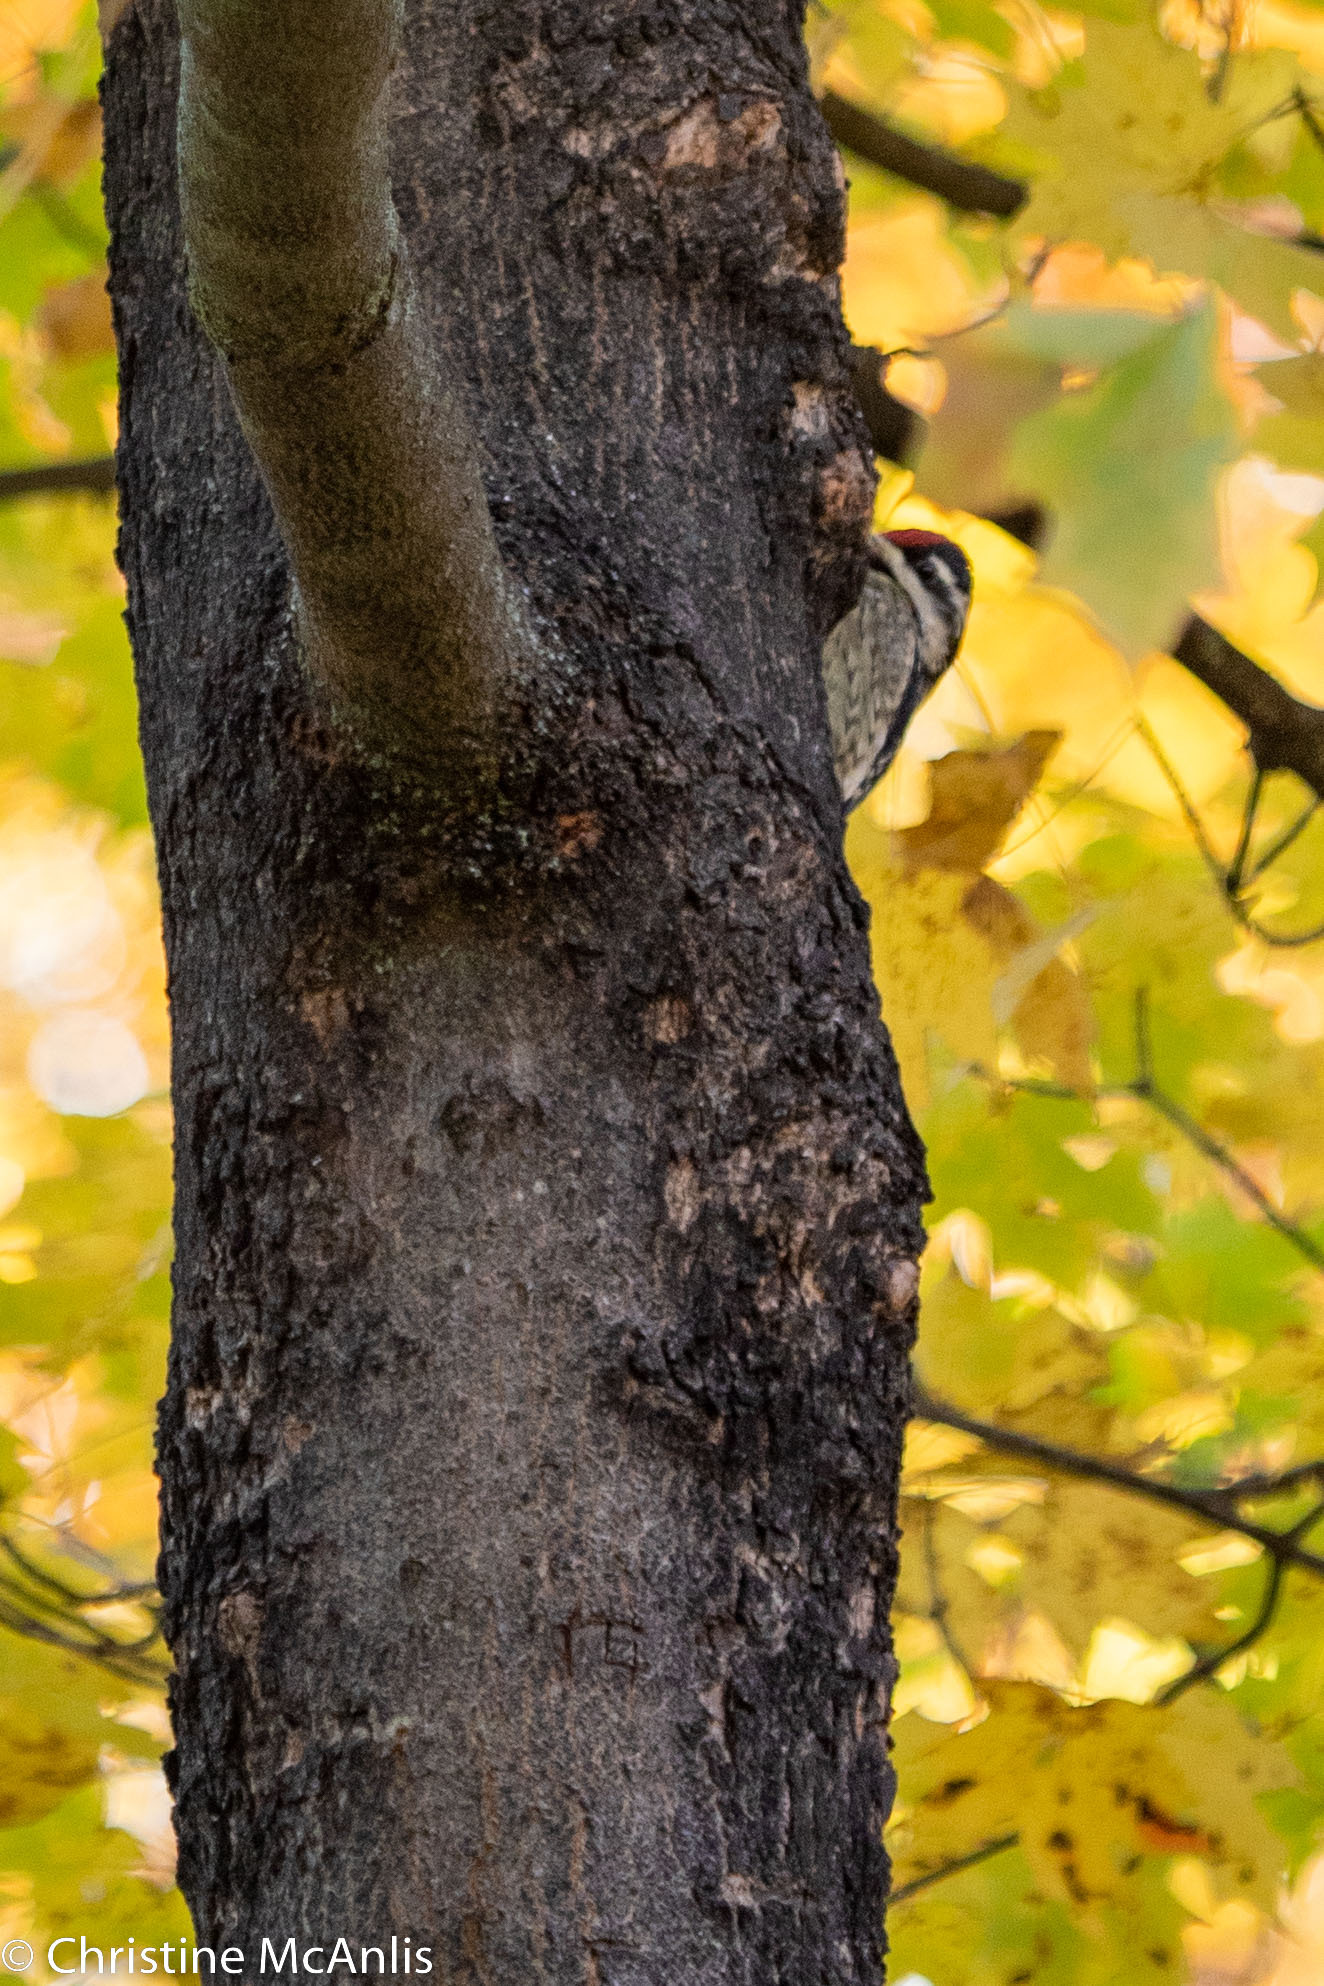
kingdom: Animalia
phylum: Chordata
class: Aves
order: Piciformes
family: Picidae
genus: Sphyrapicus
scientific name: Sphyrapicus varius
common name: Yellow-bellied sapsucker
